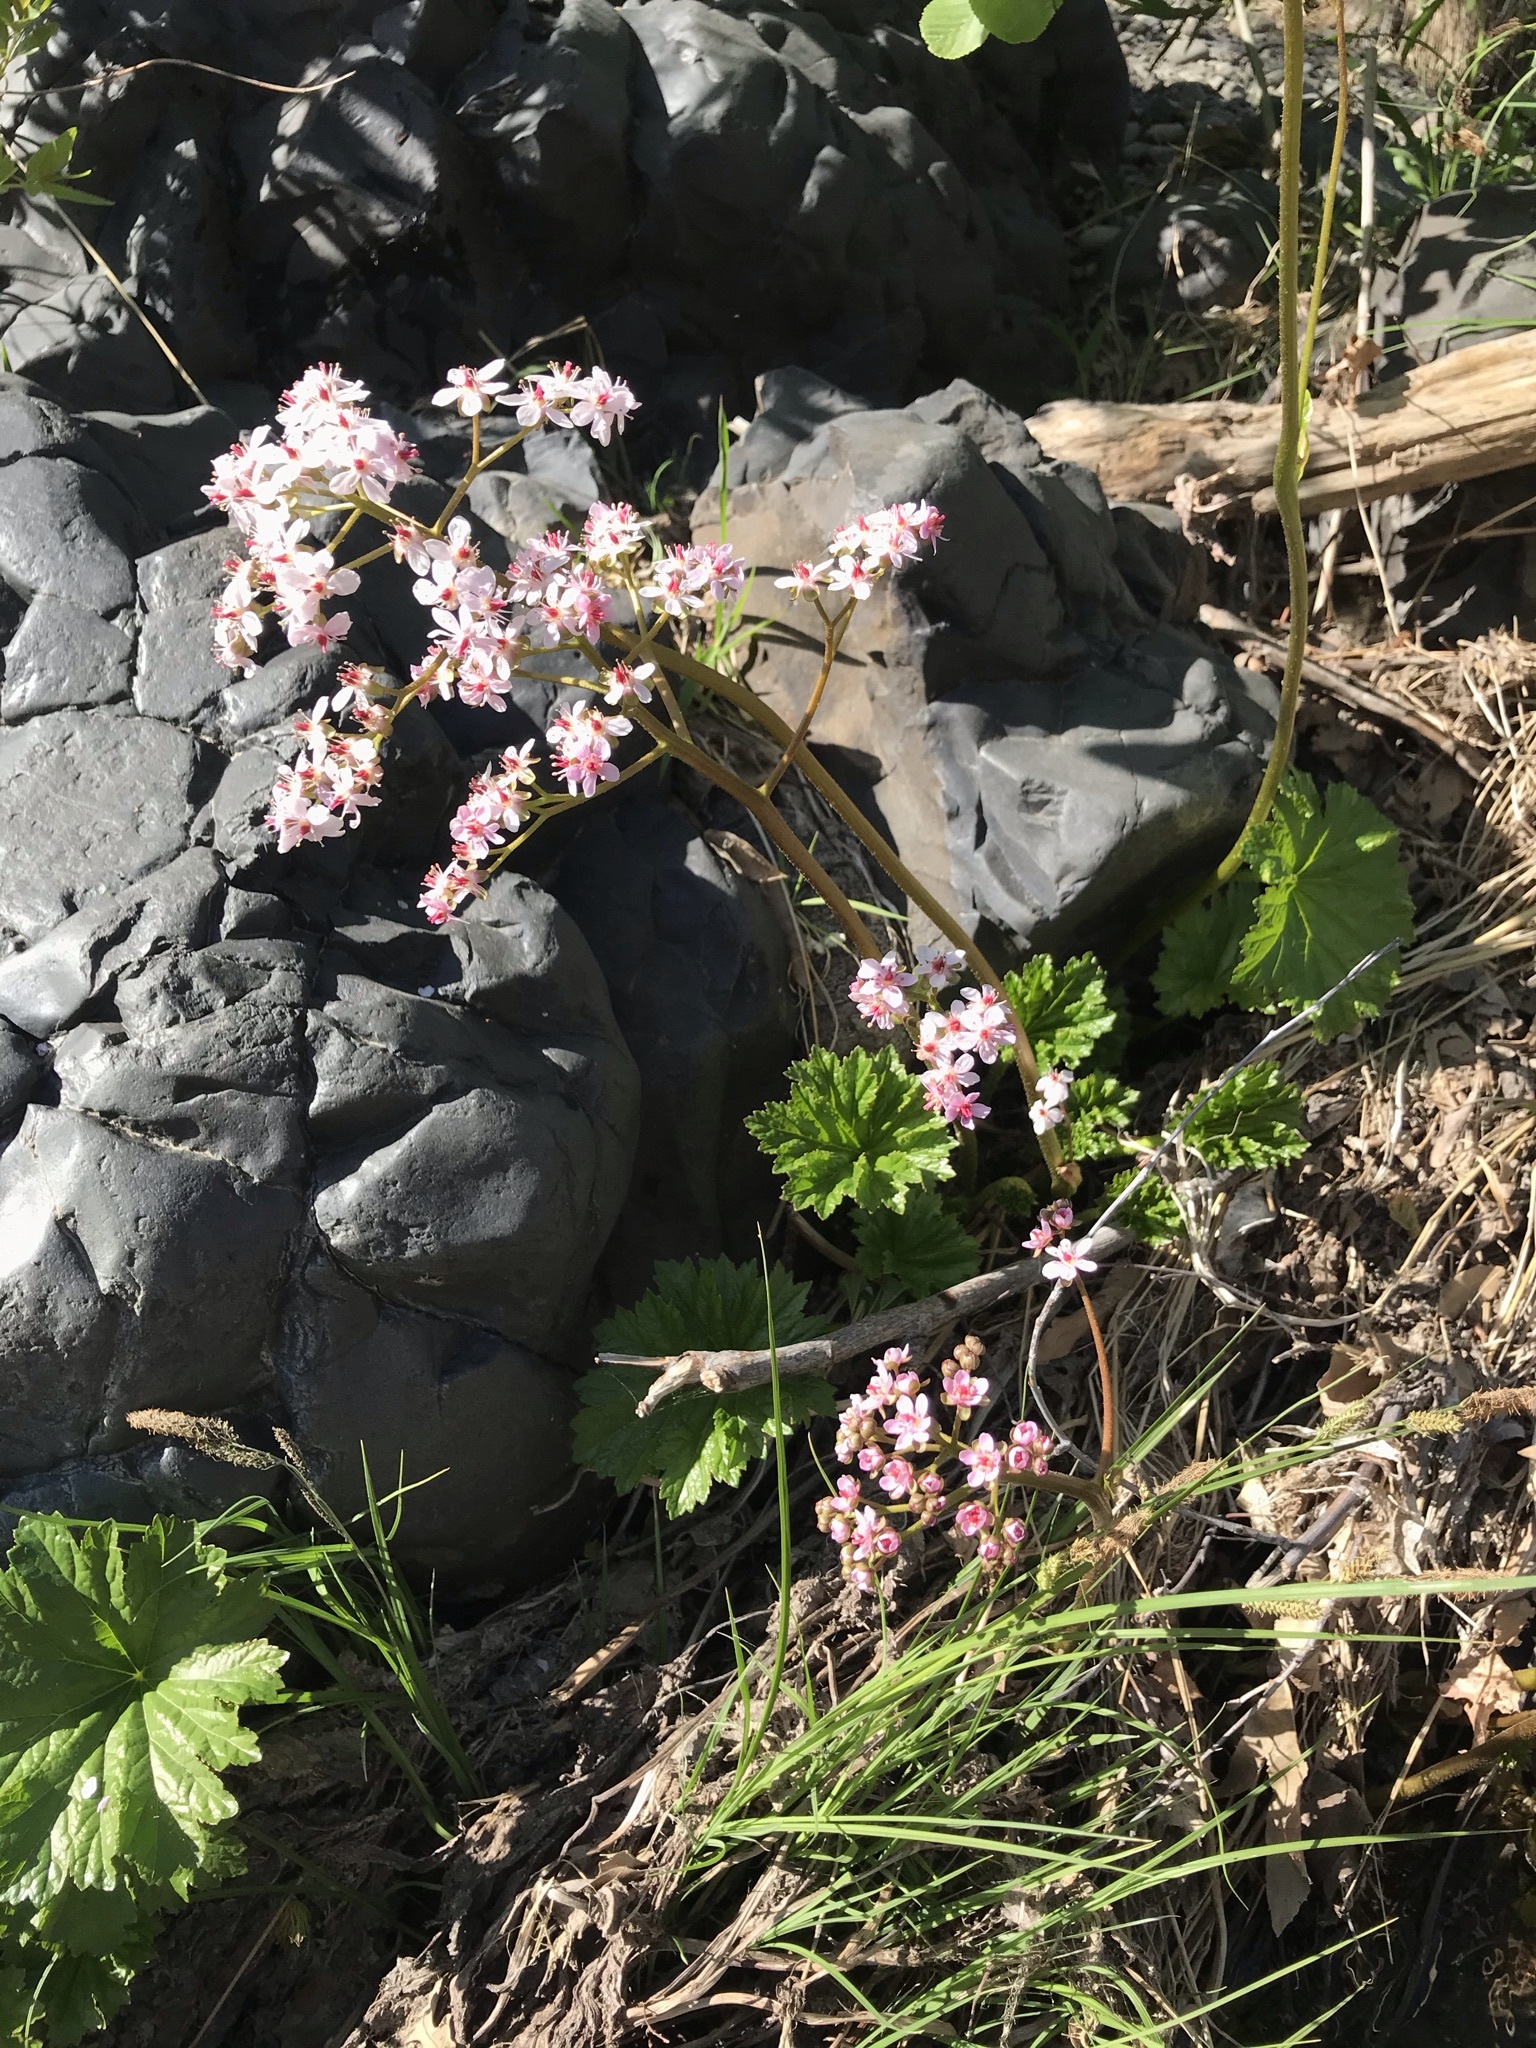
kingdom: Plantae
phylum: Tracheophyta
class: Magnoliopsida
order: Saxifragales
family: Saxifragaceae
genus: Darmera
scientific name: Darmera peltata
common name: Indian-rhubarb
